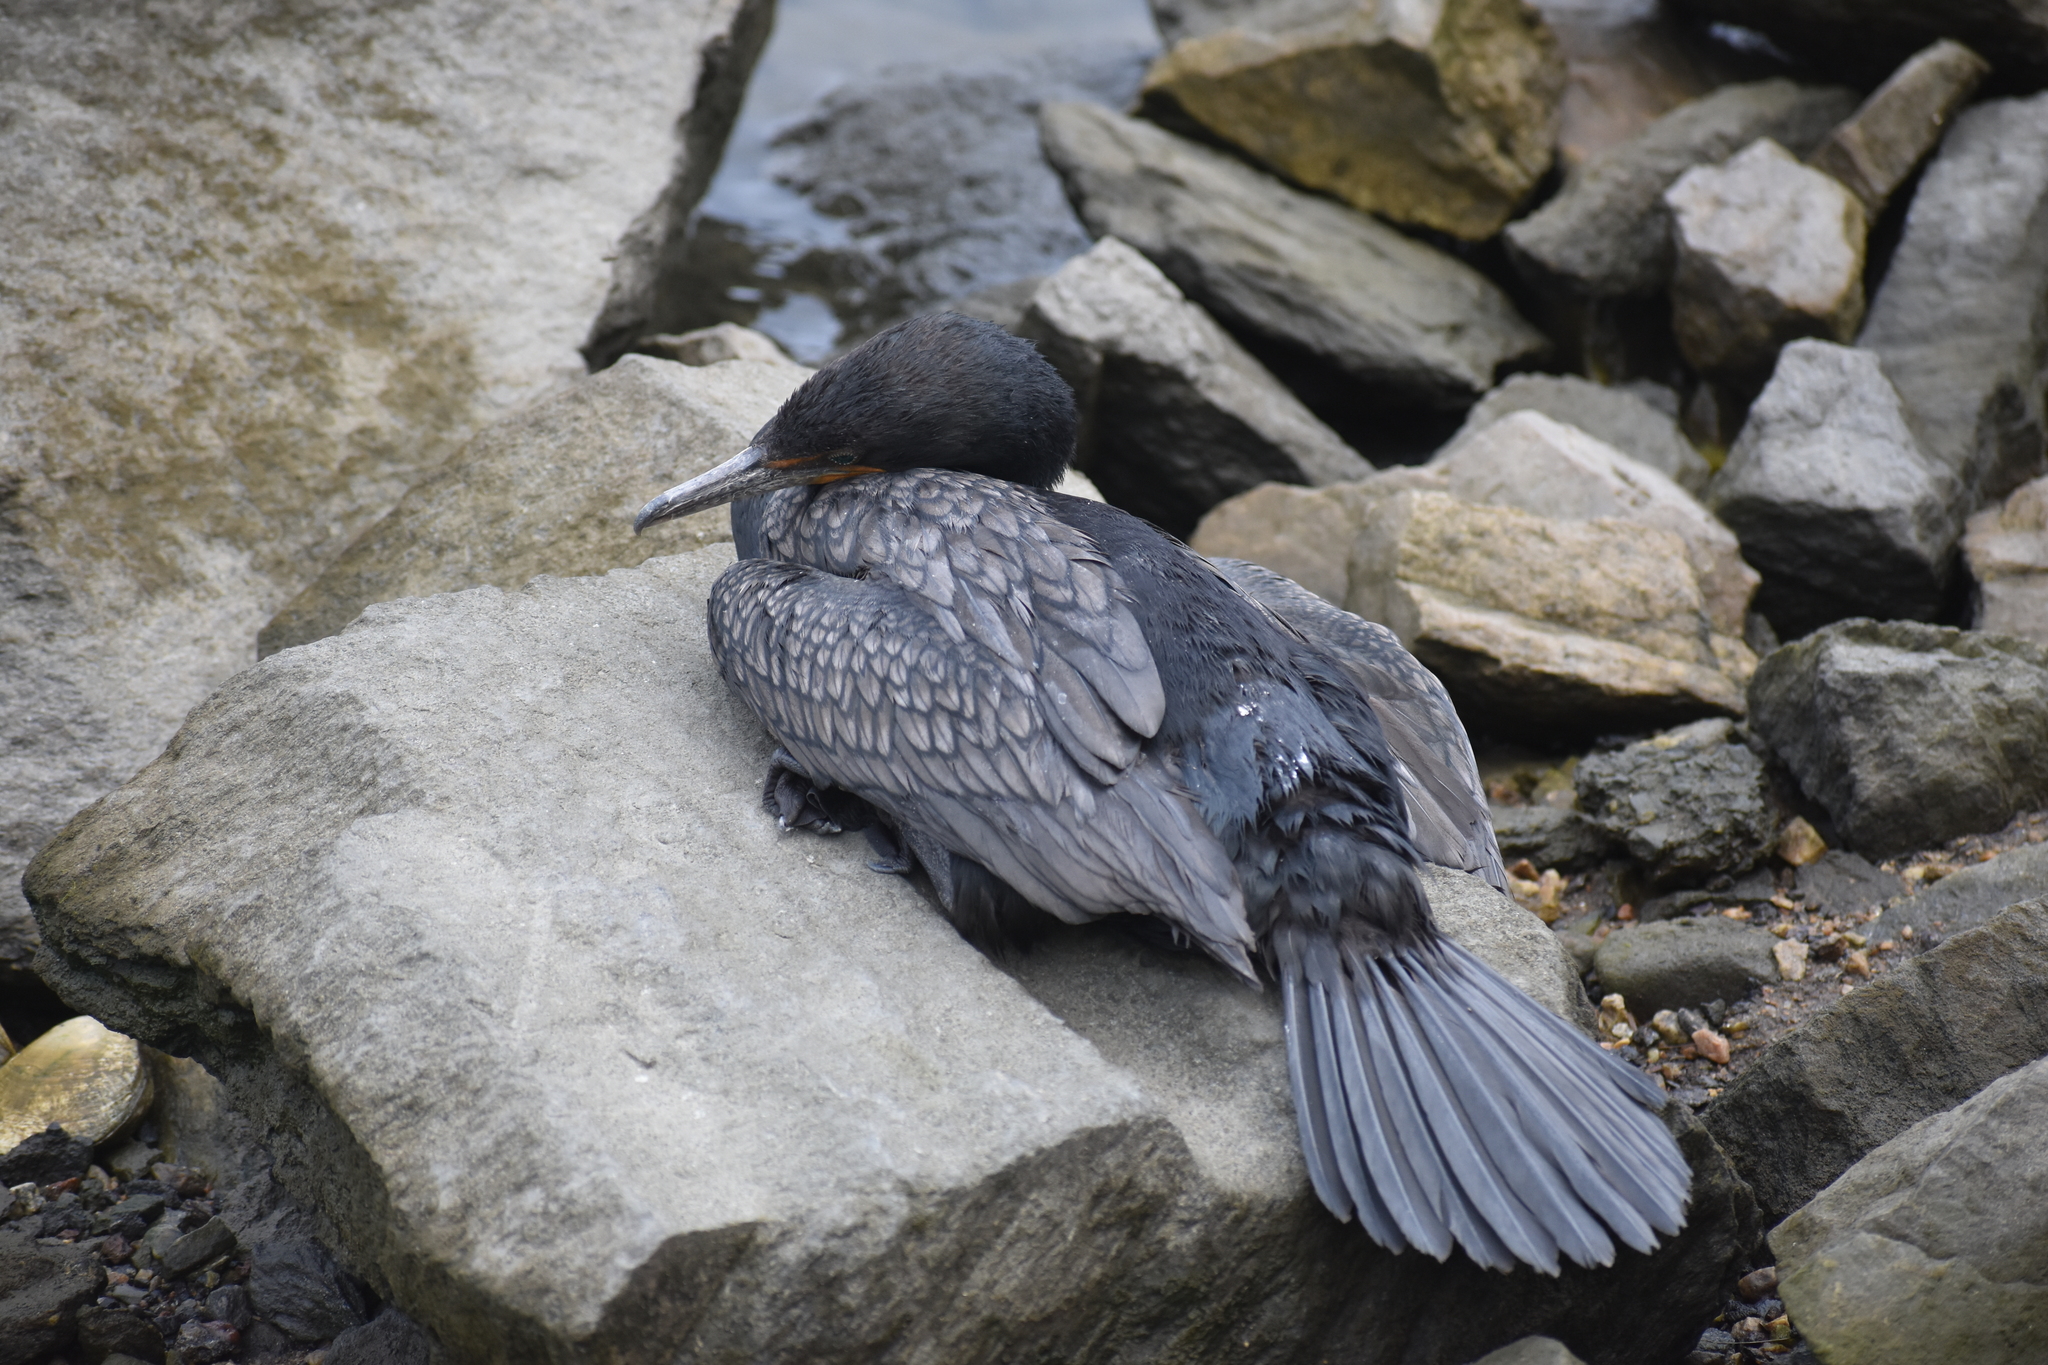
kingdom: Animalia
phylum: Chordata
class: Aves
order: Suliformes
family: Phalacrocoracidae
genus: Phalacrocorax
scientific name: Phalacrocorax auritus
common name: Double-crested cormorant
